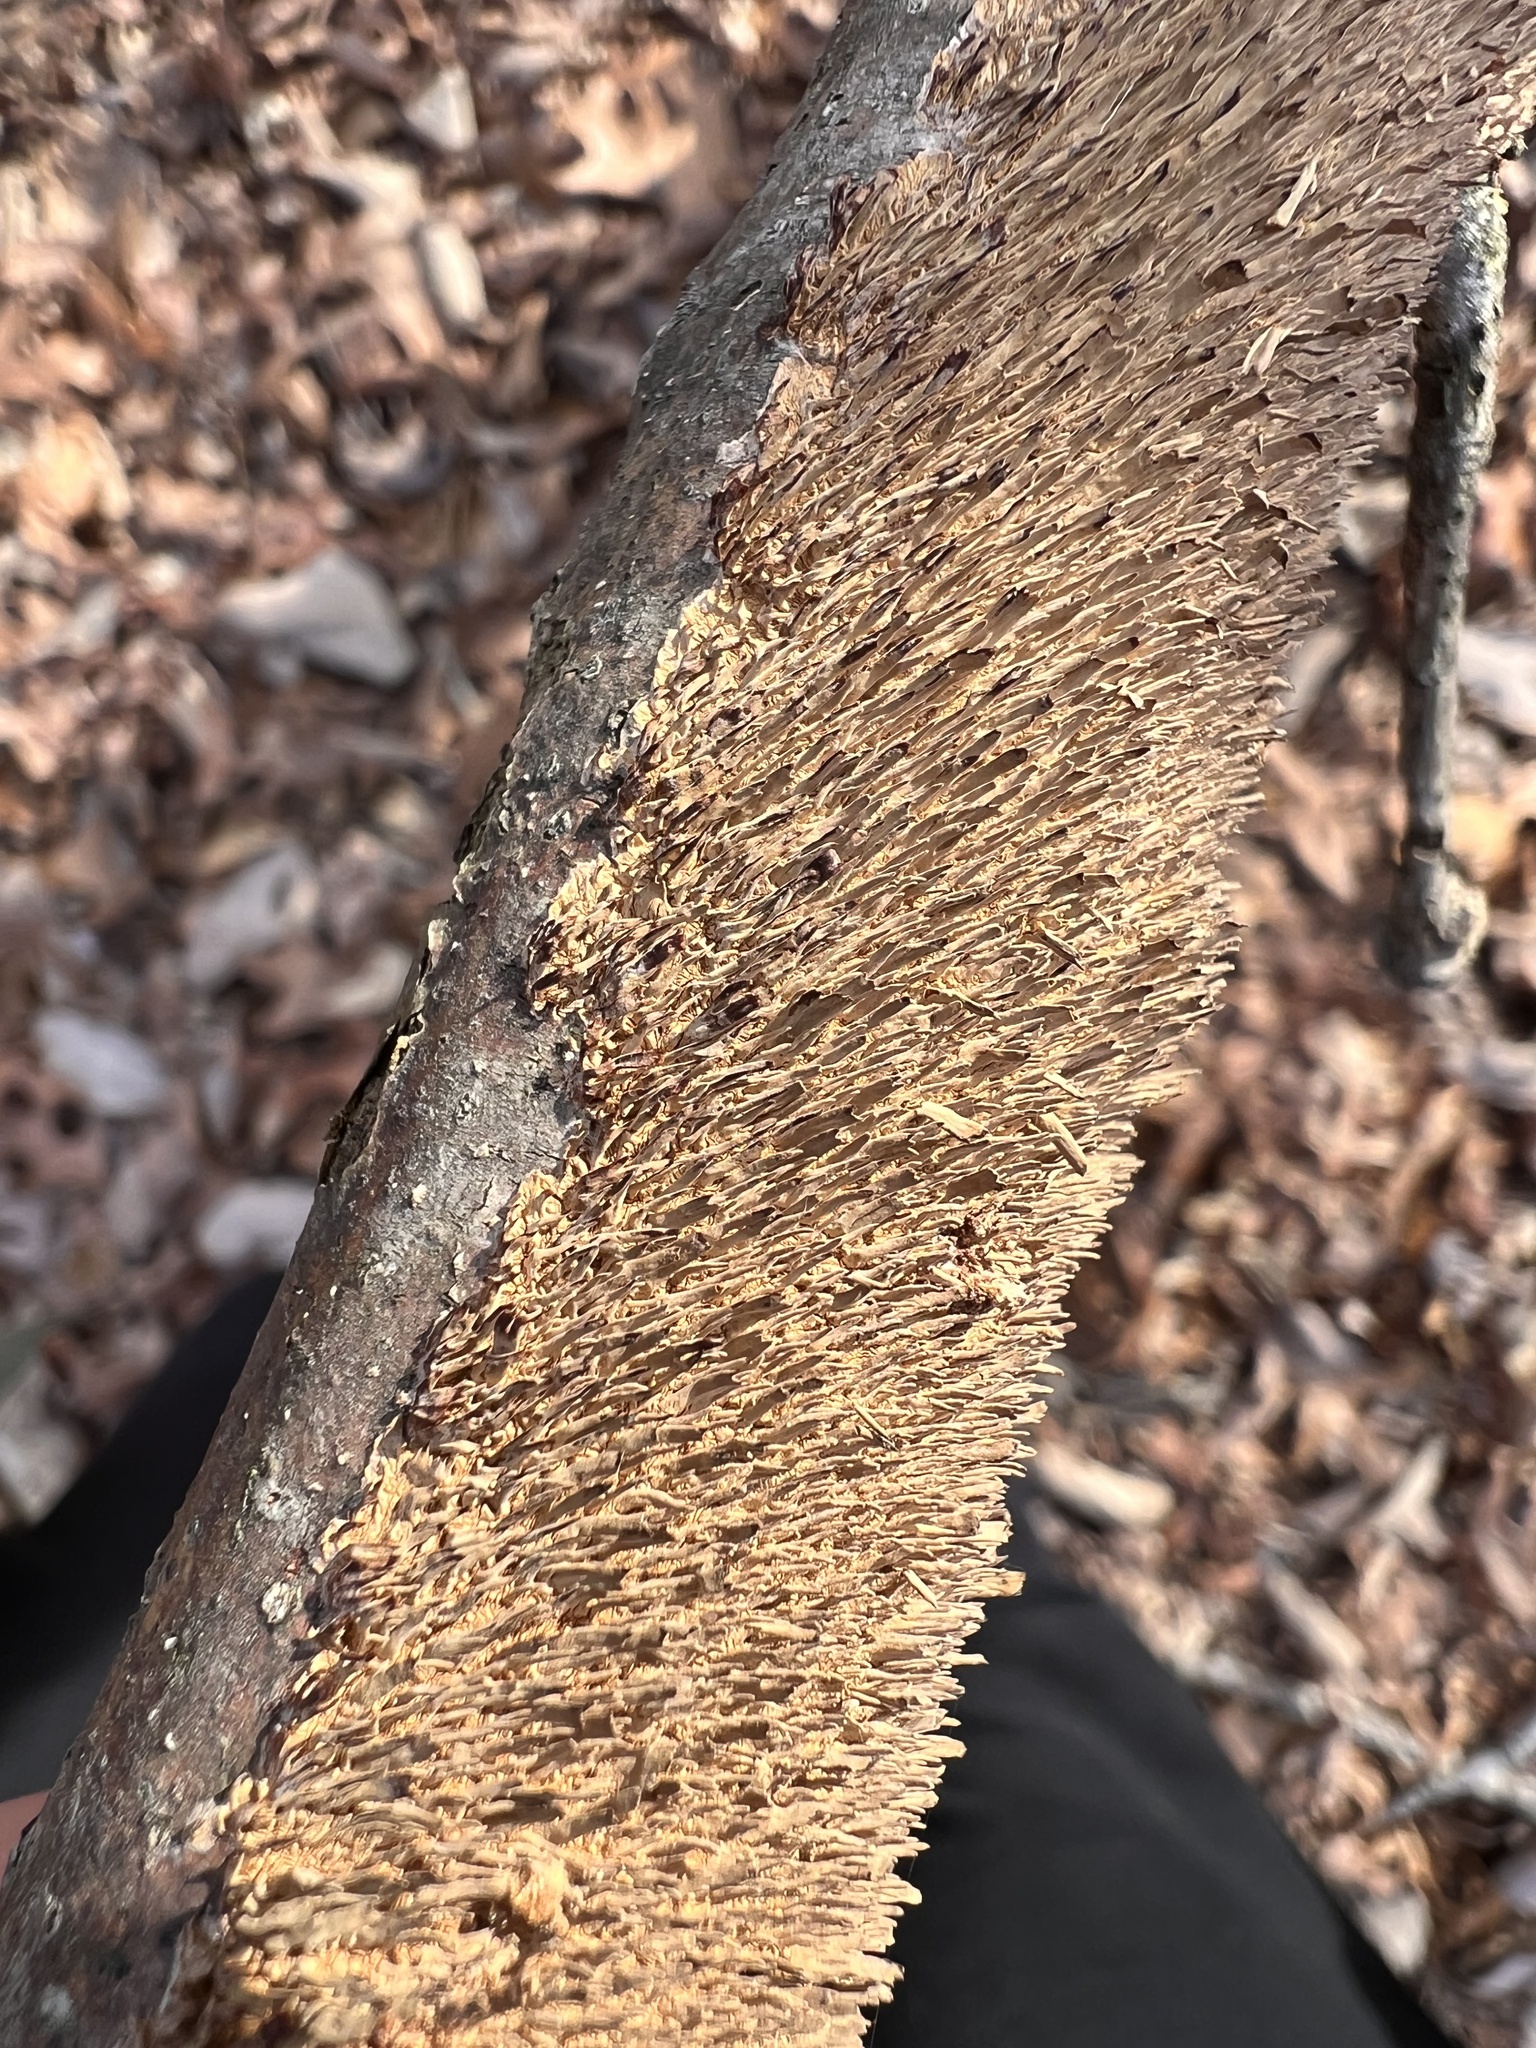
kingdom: Fungi
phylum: Basidiomycota
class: Agaricomycetes
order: Hymenochaetales
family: Hymenochaetaceae
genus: Hydnoporia
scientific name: Hydnoporia olivacea
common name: Brown-toothed crust fungus
